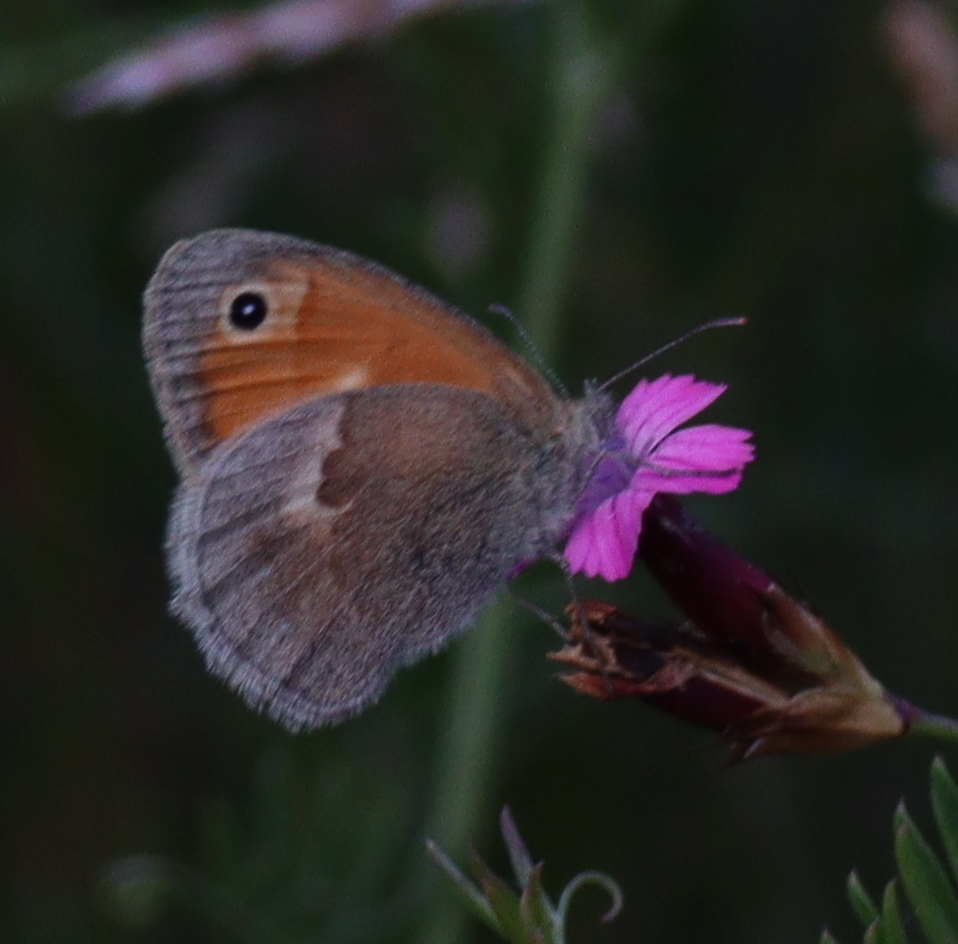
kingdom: Animalia
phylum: Arthropoda
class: Insecta
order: Lepidoptera
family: Nymphalidae
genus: Coenonympha
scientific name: Coenonympha pamphilus
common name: Small heath
